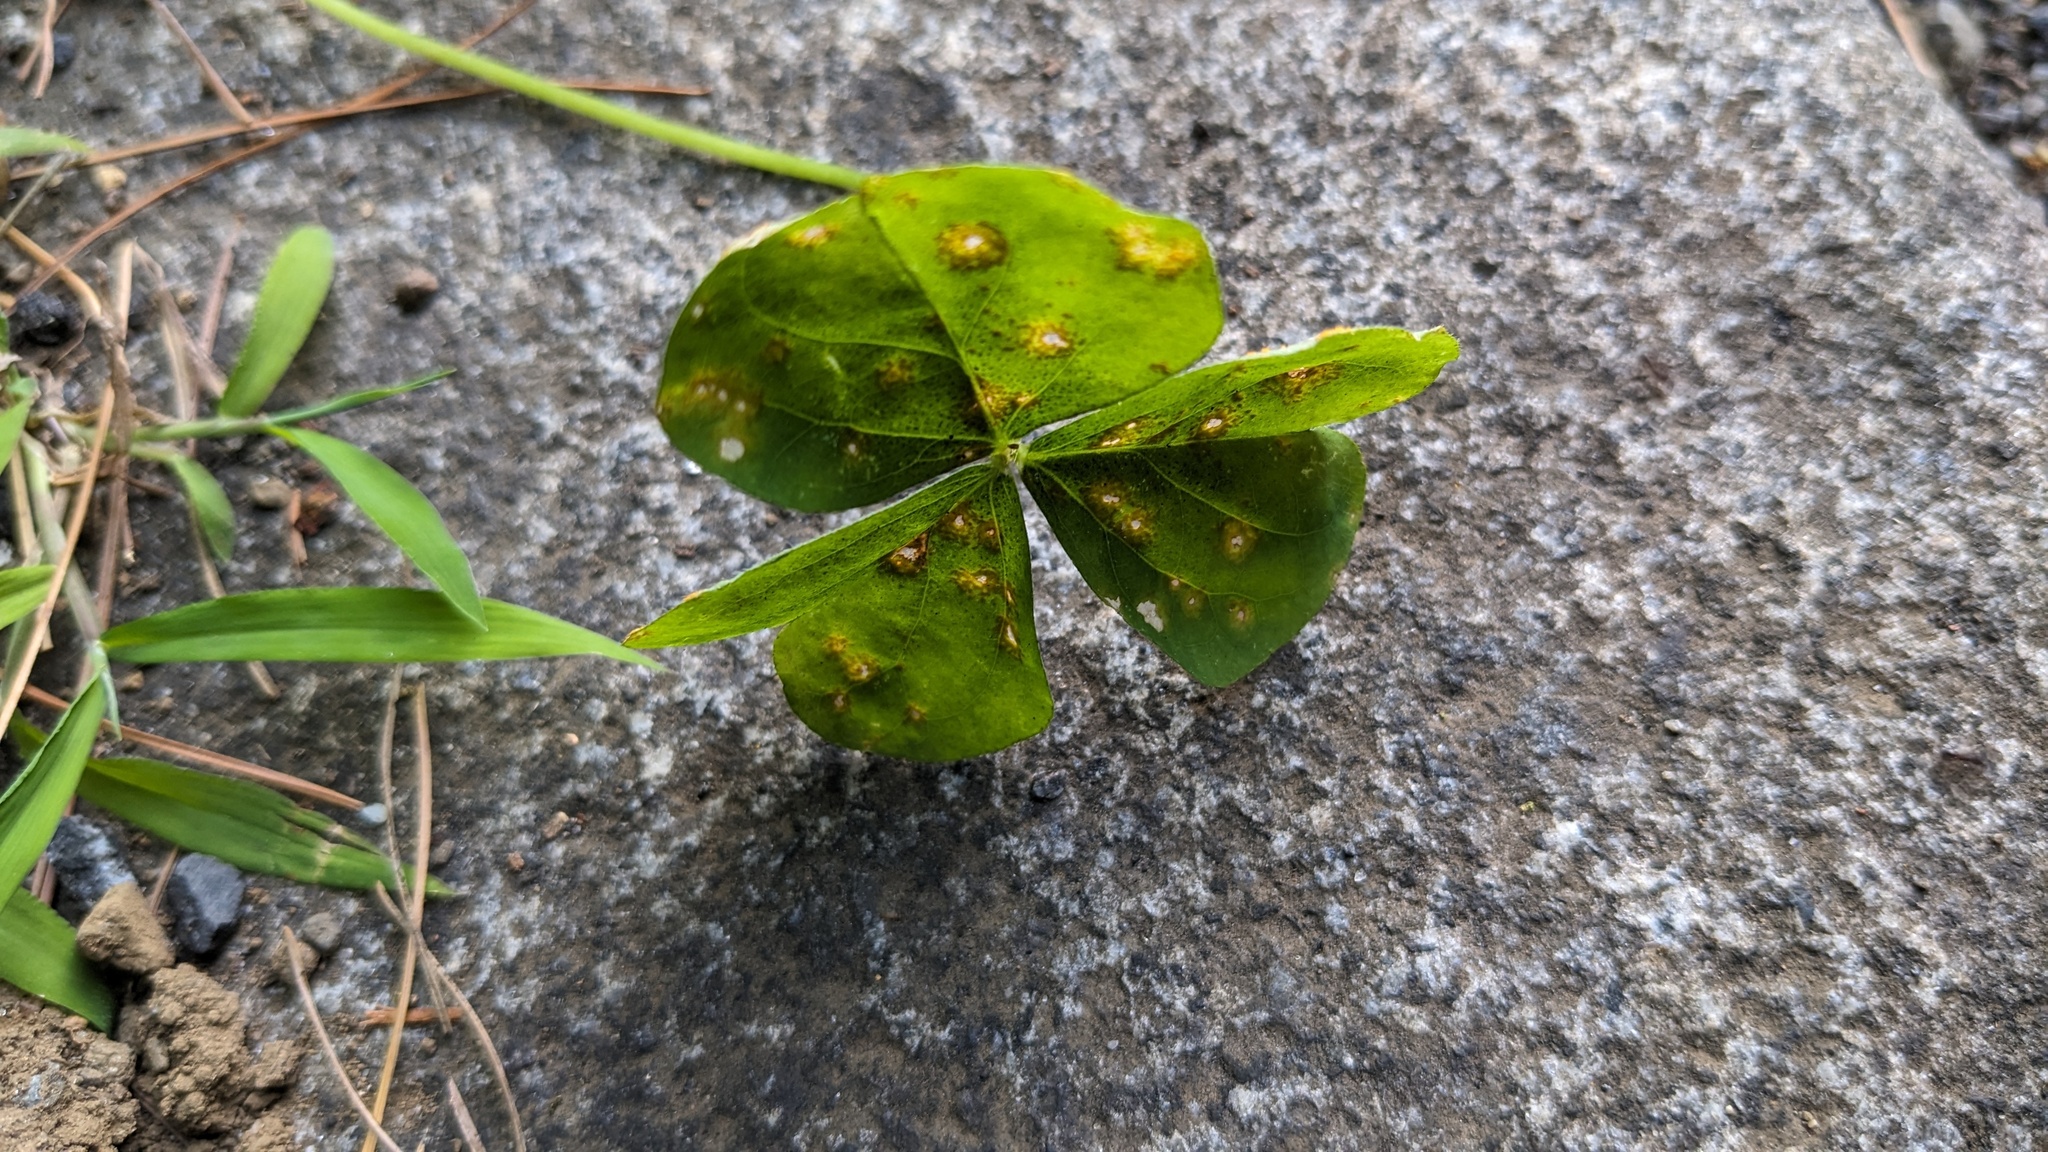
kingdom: Fungi
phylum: Basidiomycota
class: Pucciniomycetes
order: Pucciniales
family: Pucciniaceae
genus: Puccinia
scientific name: Puccinia oxalidis
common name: Oxalis rust
